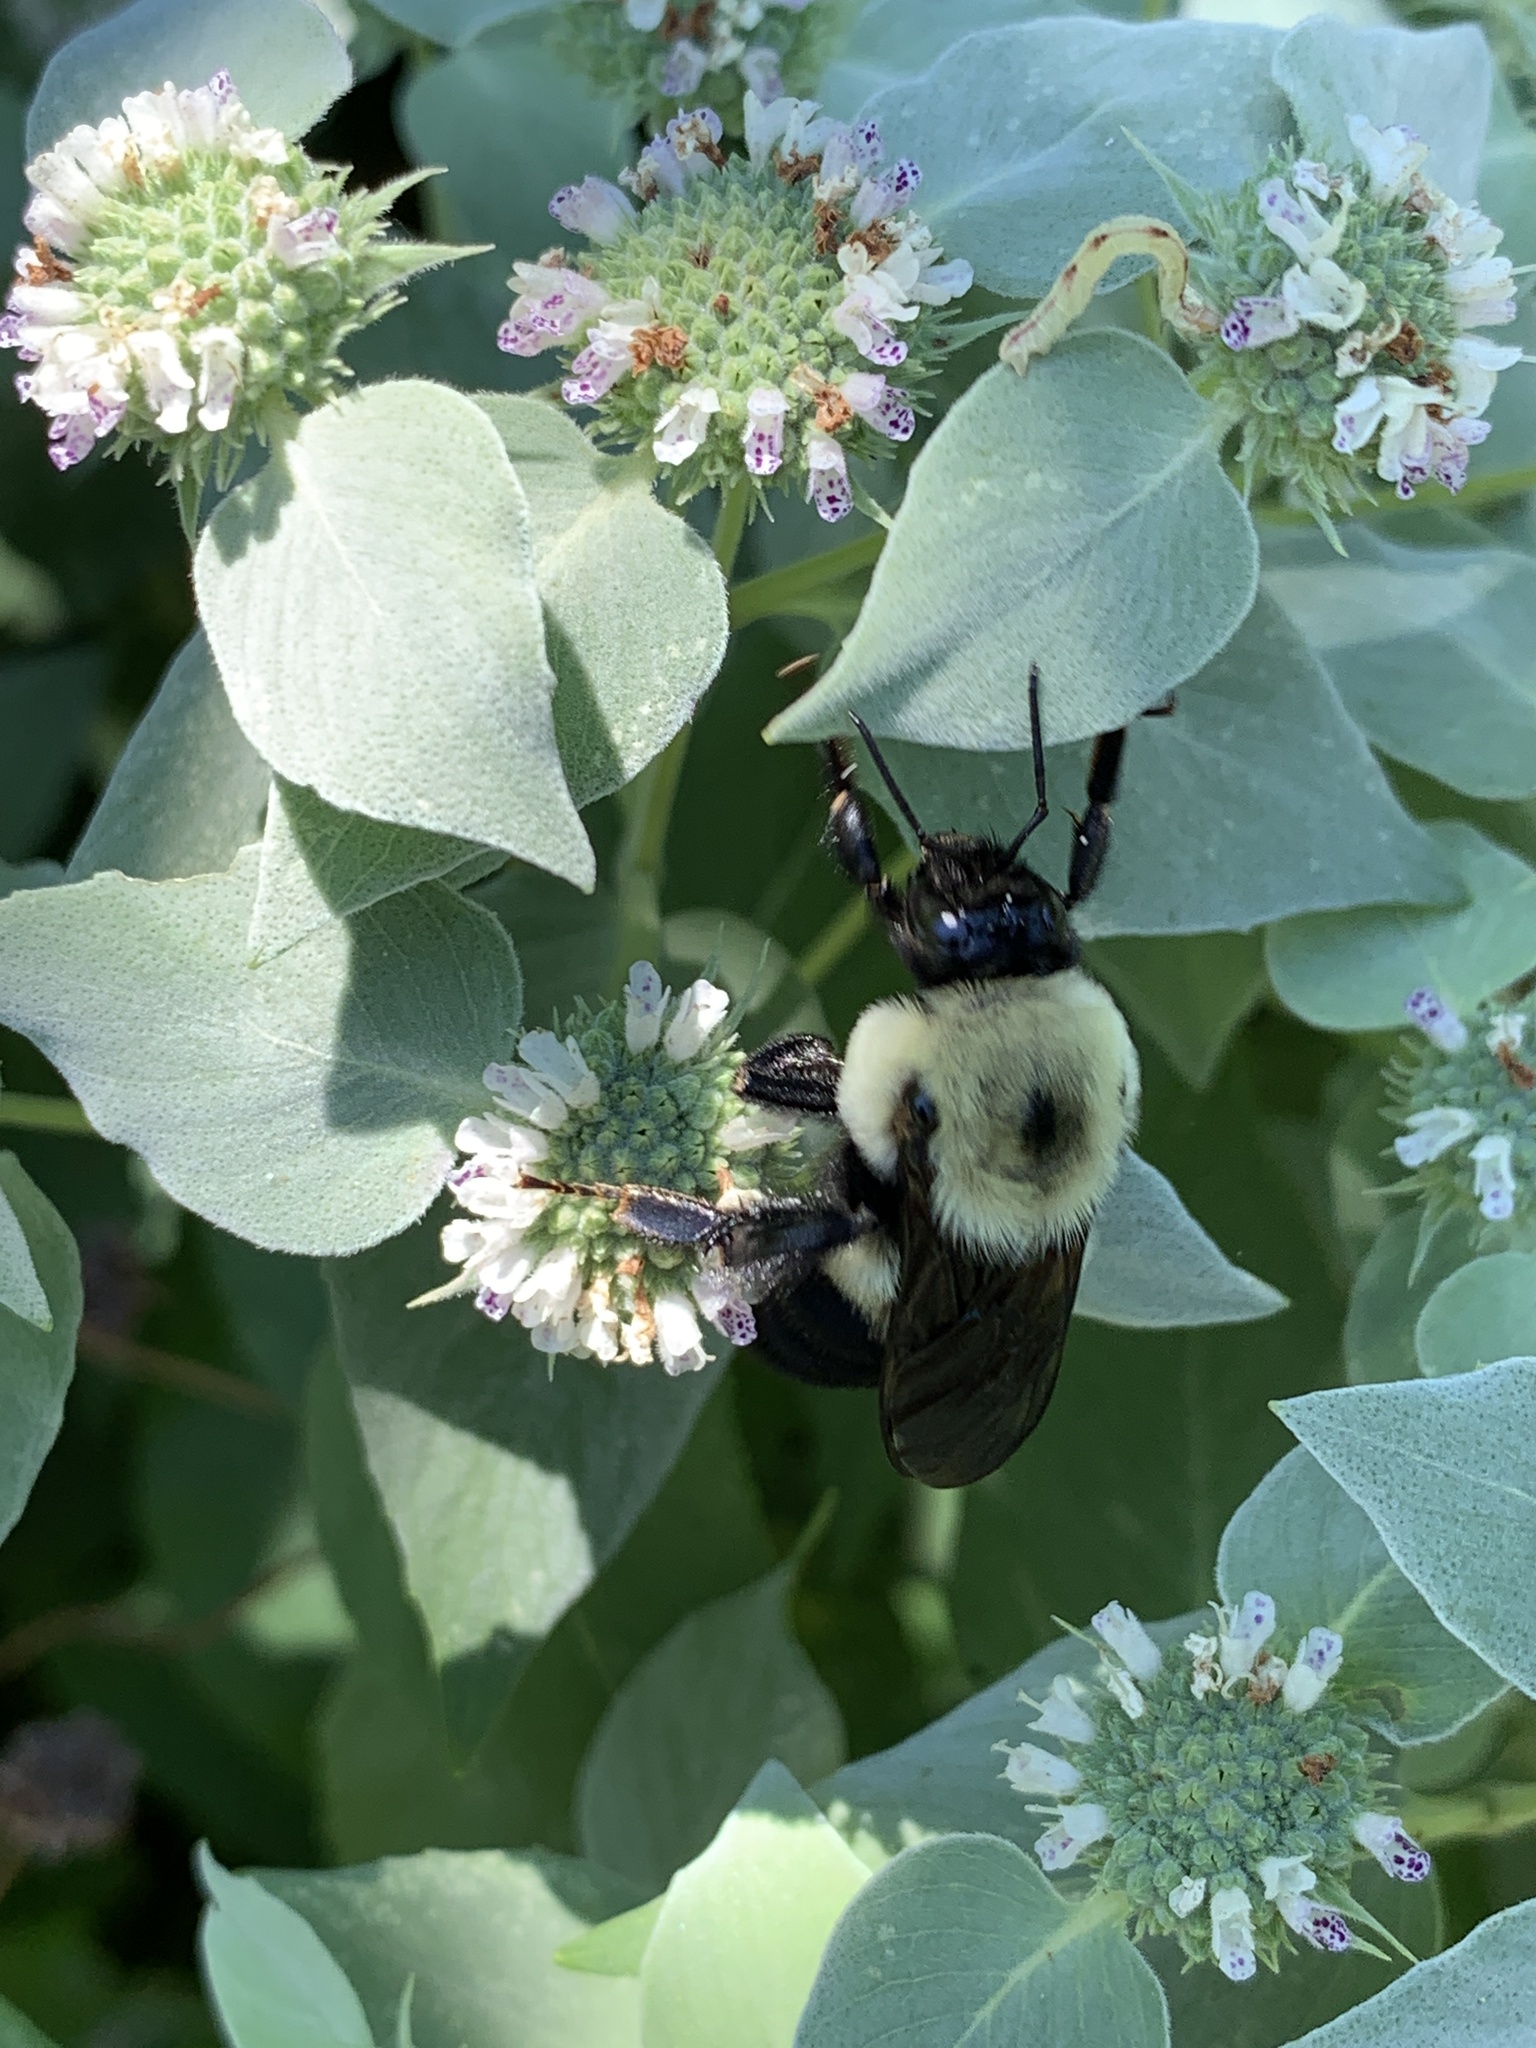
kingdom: Animalia
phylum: Arthropoda
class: Insecta
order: Hymenoptera
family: Apidae
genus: Bombus
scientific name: Bombus griseocollis
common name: Brown-belted bumble bee
